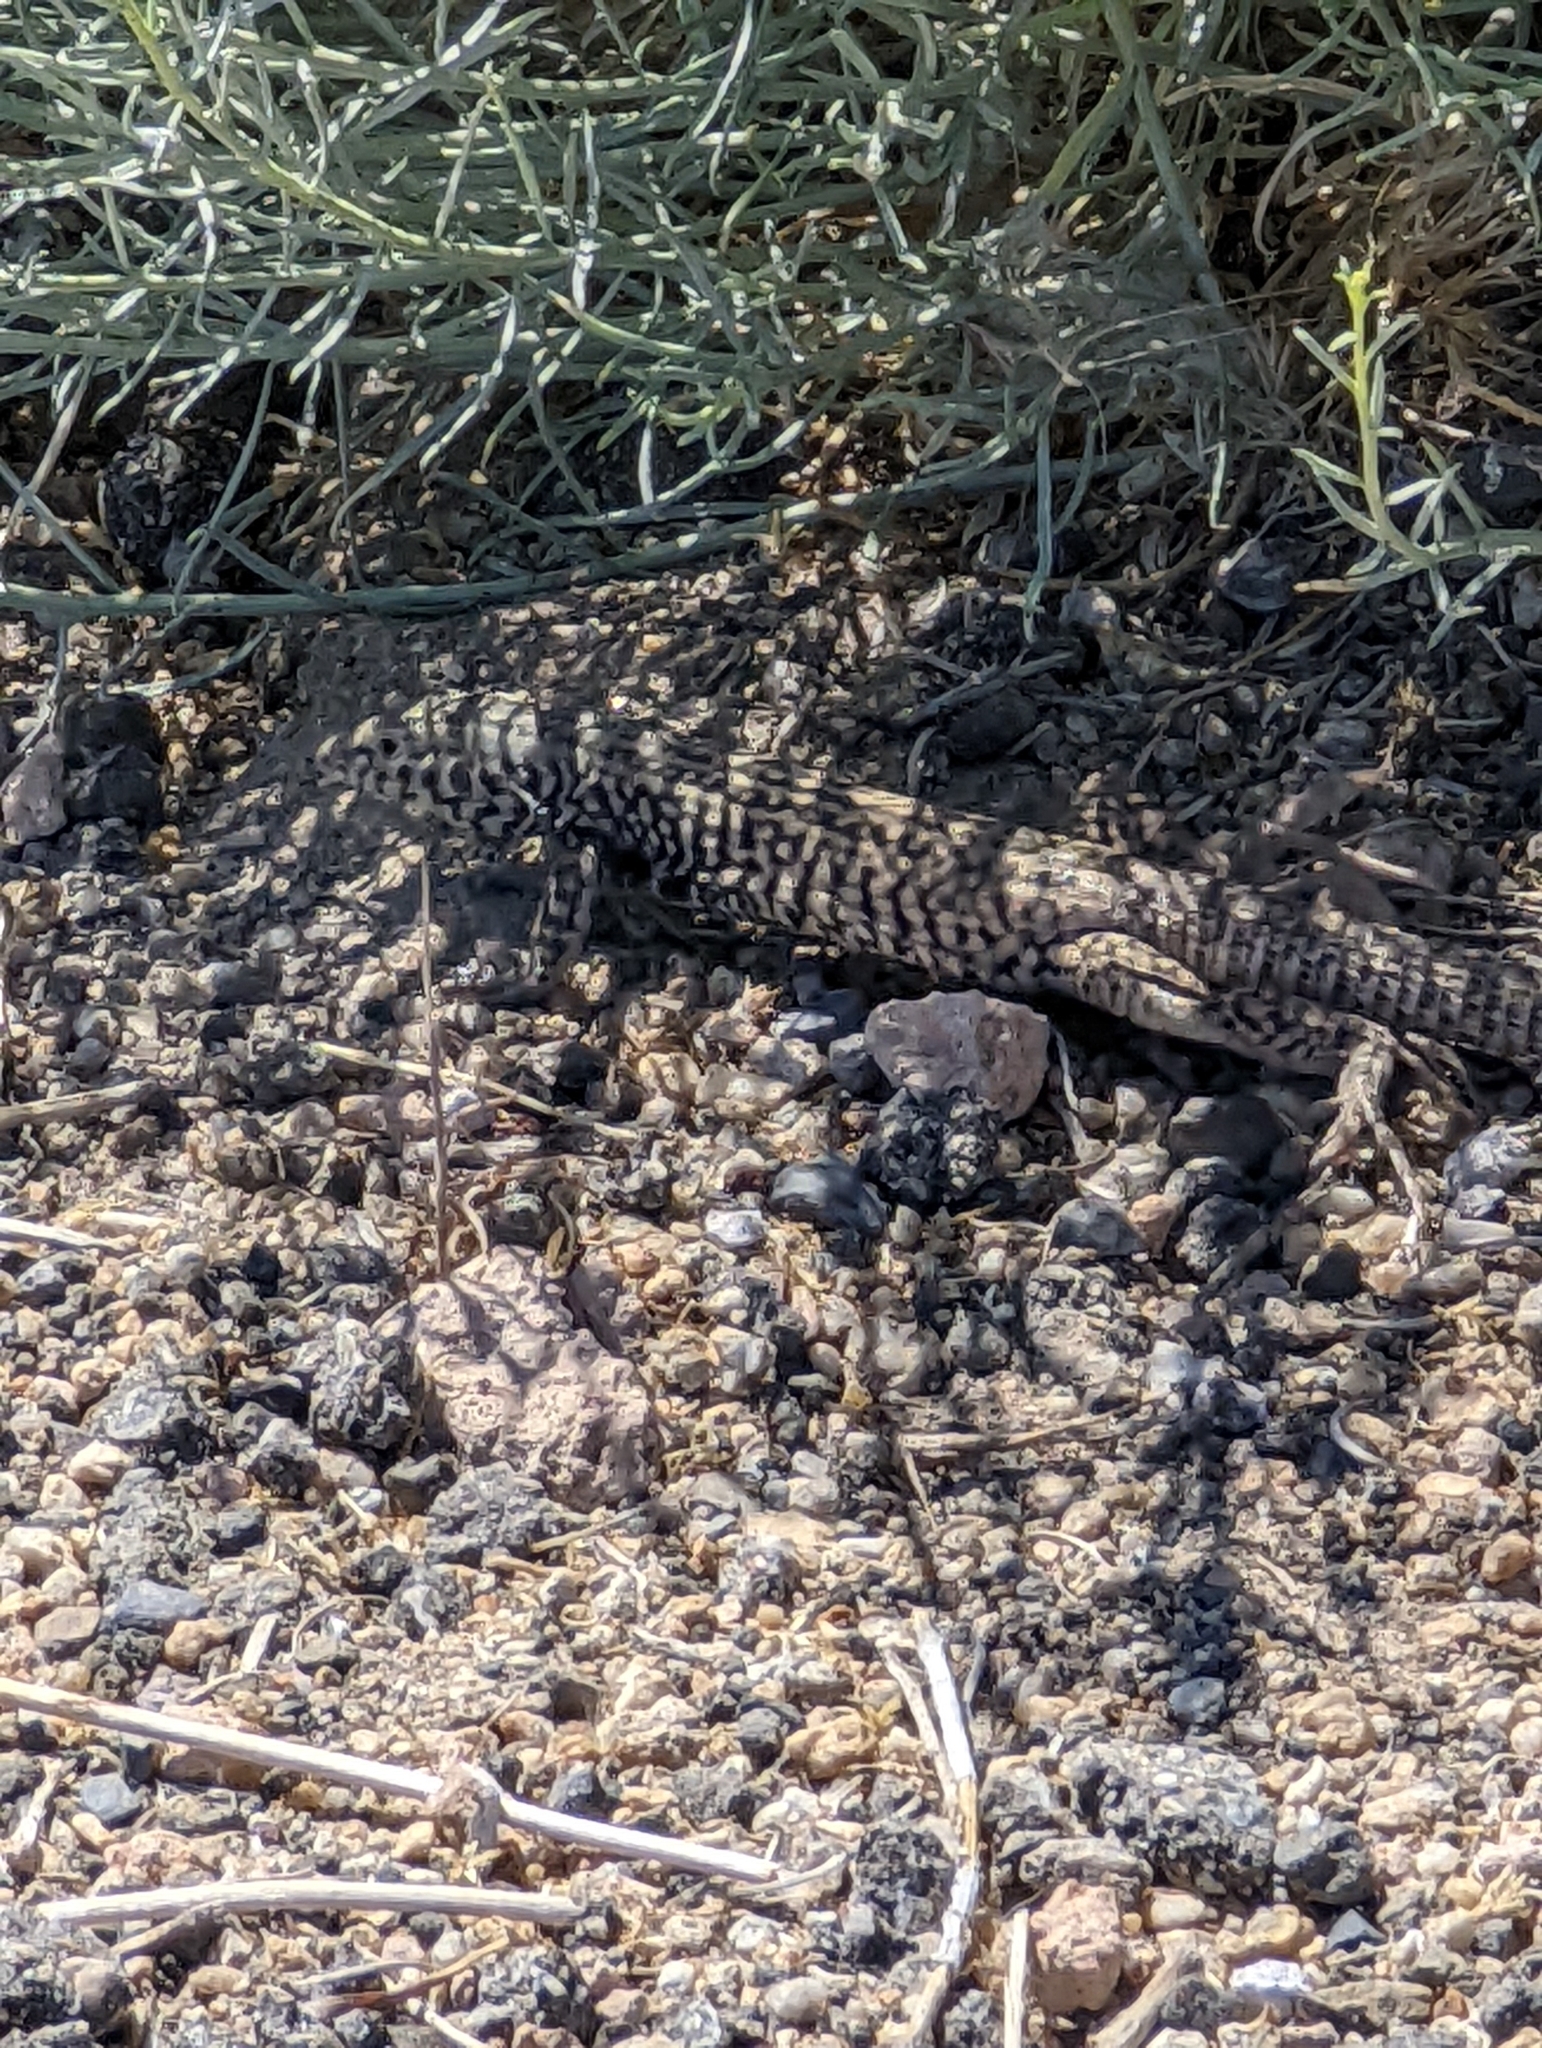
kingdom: Animalia
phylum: Chordata
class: Squamata
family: Teiidae
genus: Aspidoscelis
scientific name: Aspidoscelis tigris
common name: Tiger whiptail
